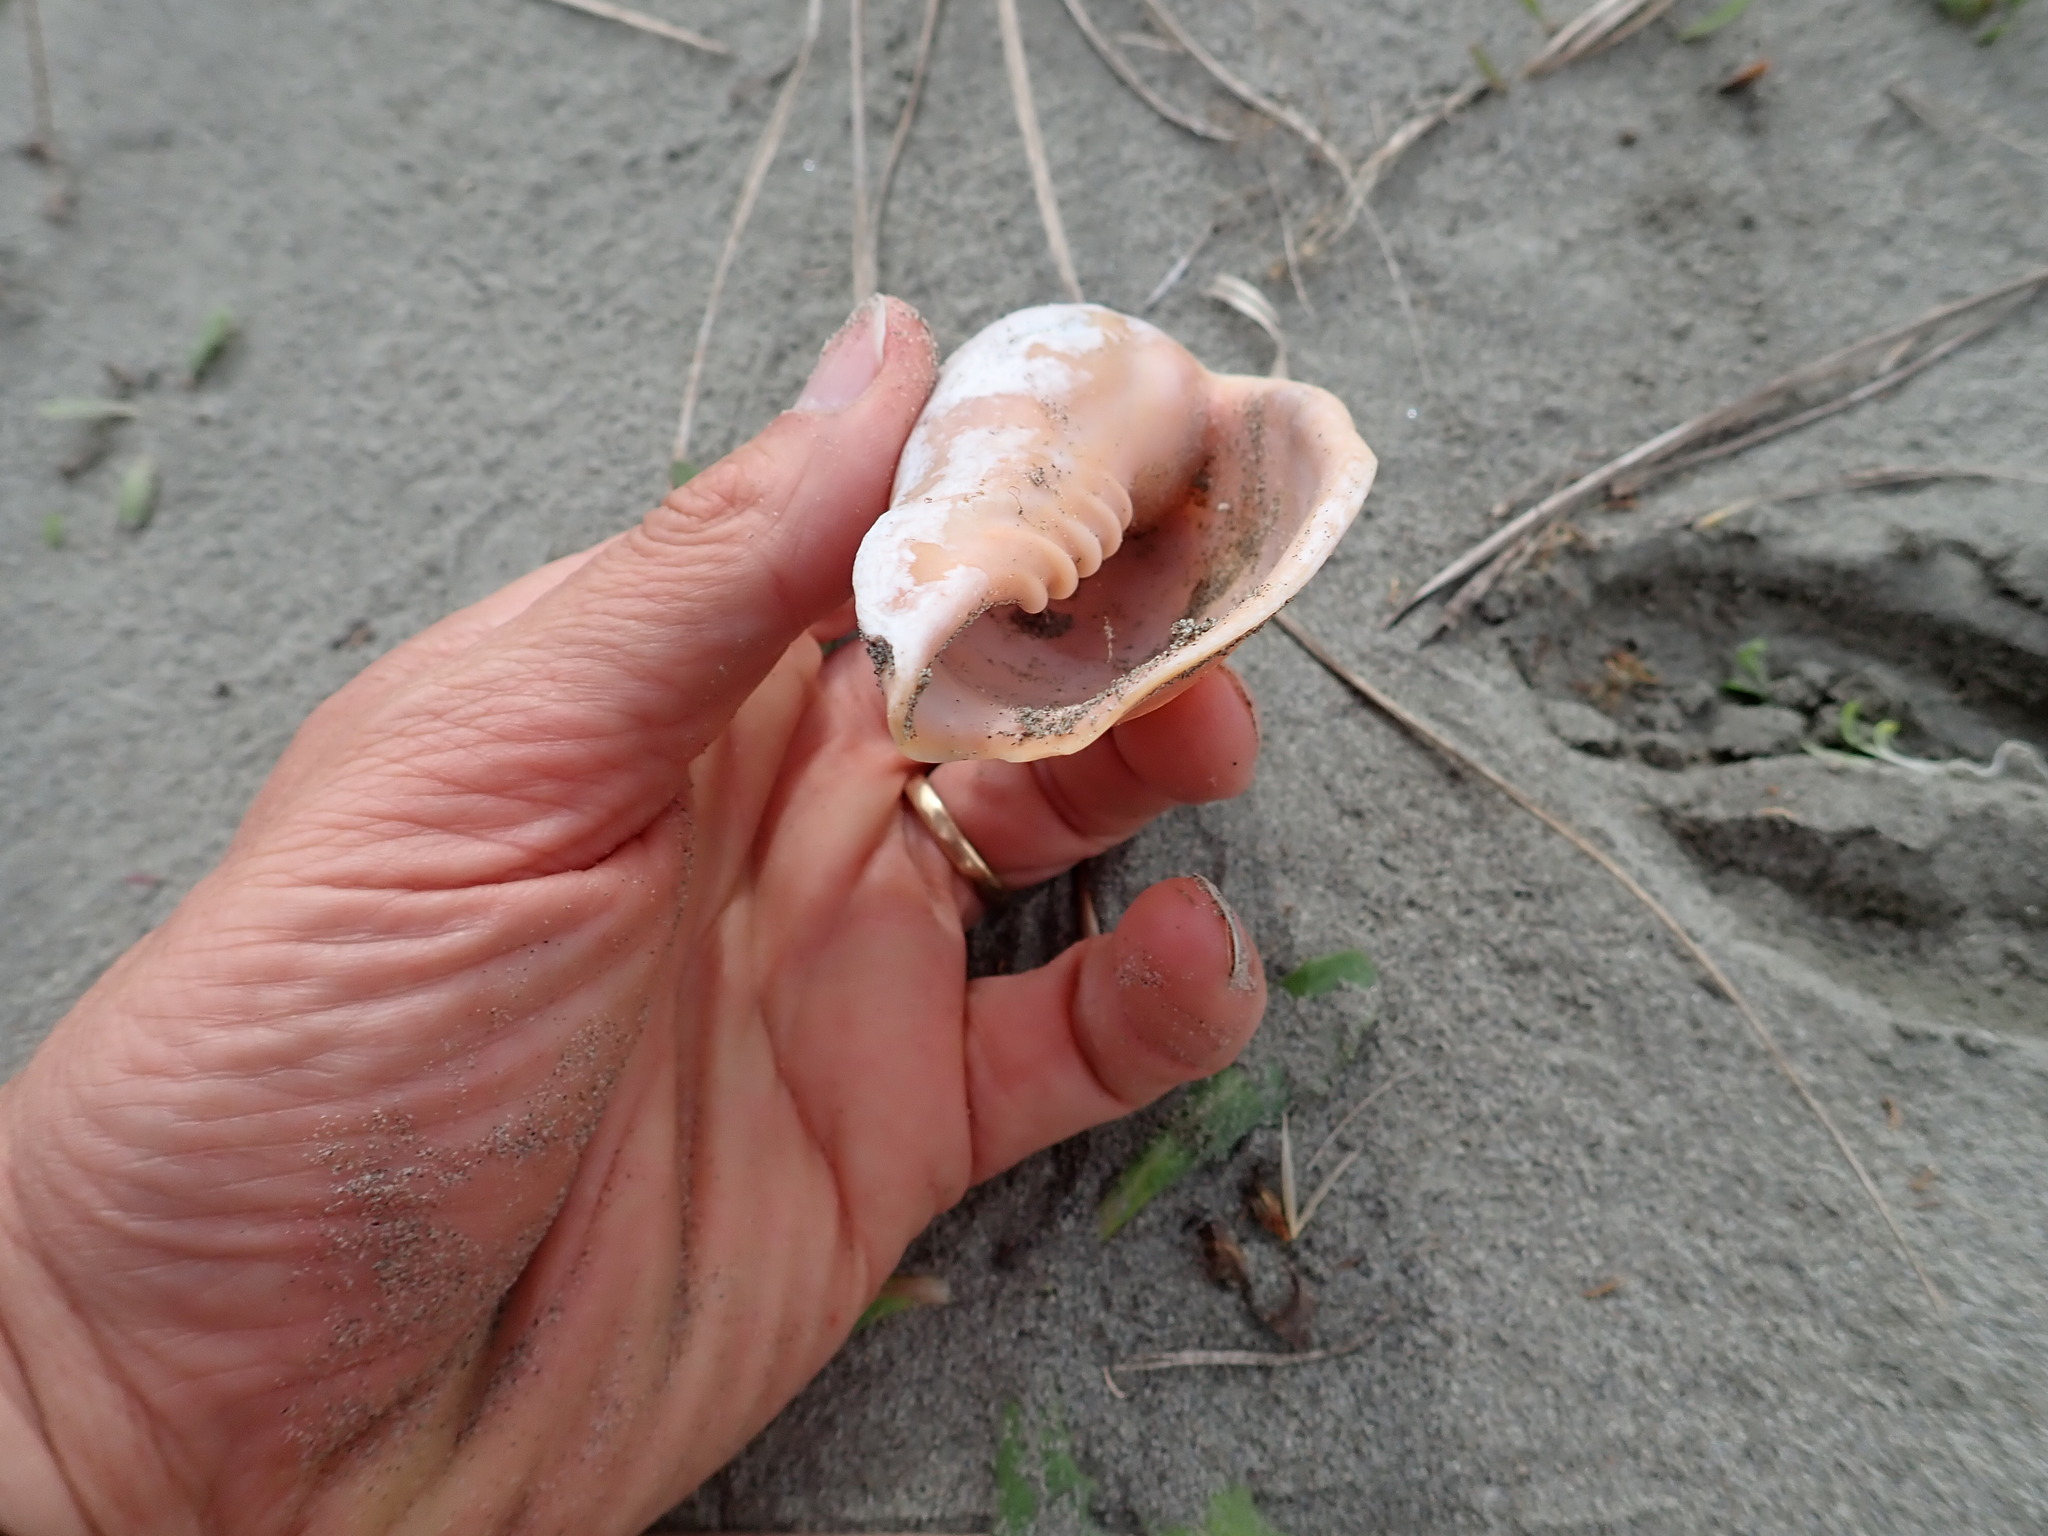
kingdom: Animalia
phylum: Mollusca
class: Gastropoda
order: Neogastropoda
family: Volutidae
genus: Alcithoe
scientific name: Alcithoe arabica
